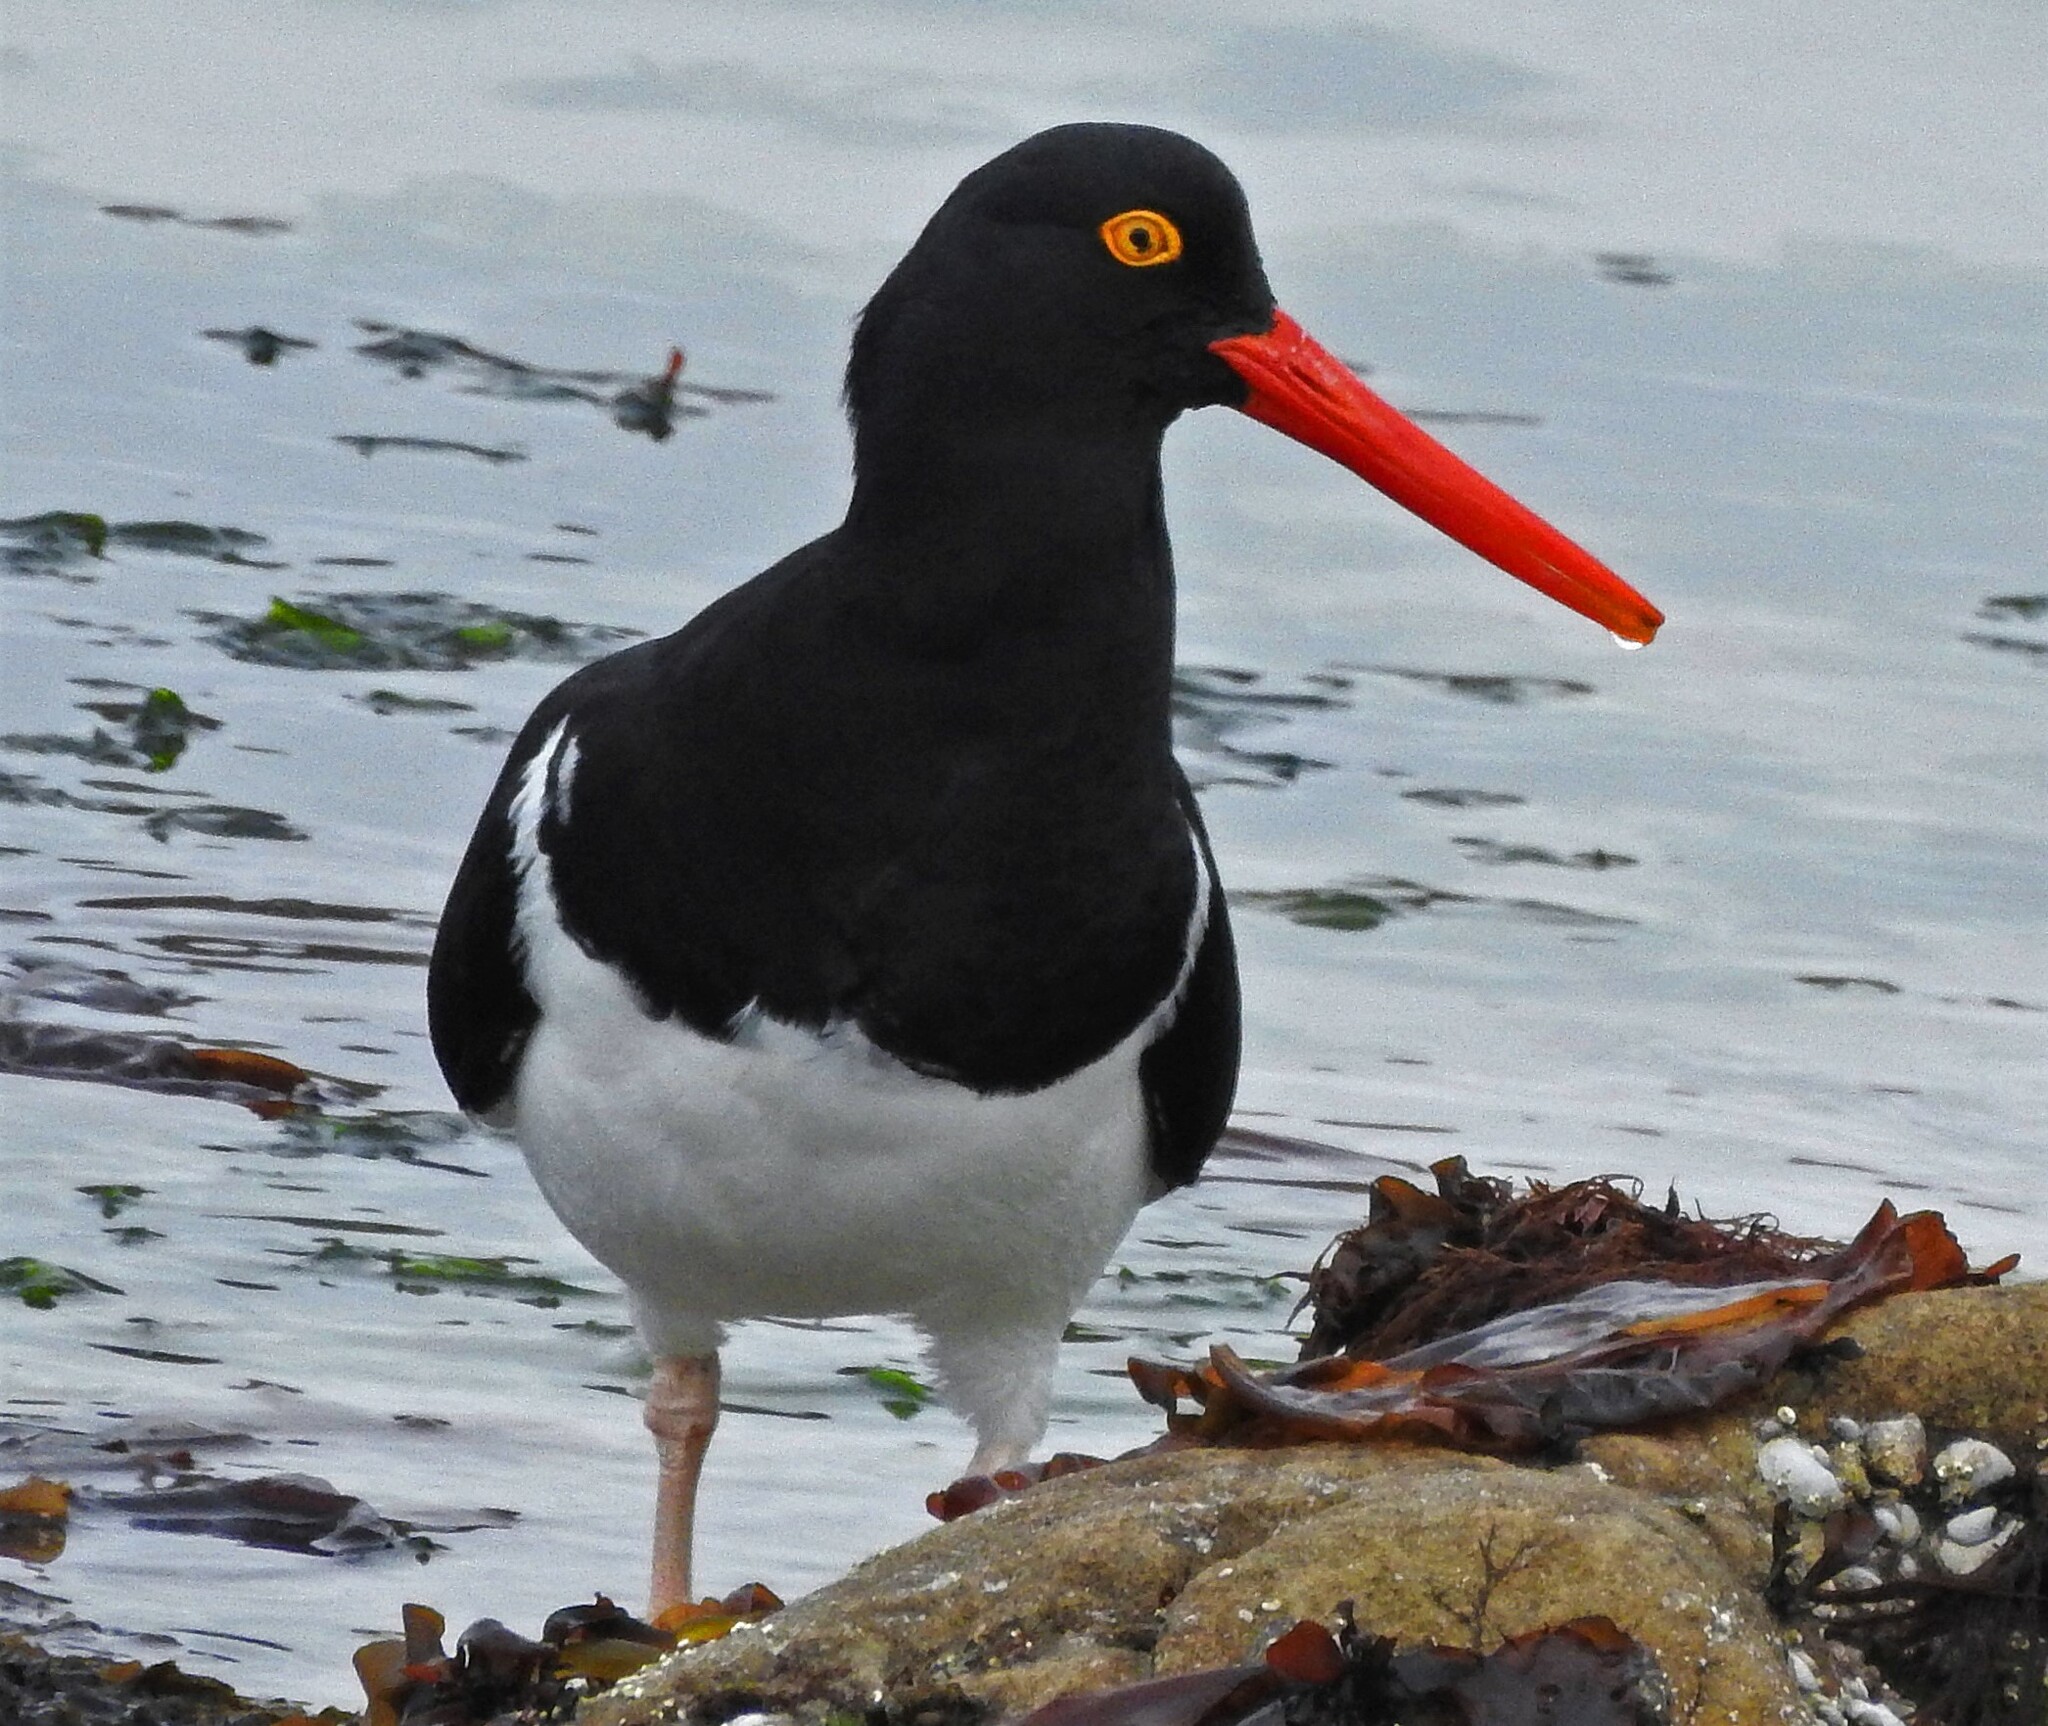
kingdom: Animalia
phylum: Chordata
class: Aves
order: Charadriiformes
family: Haematopodidae
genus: Haematopus
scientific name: Haematopus leucopodus
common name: Magellanic oystercatcher
